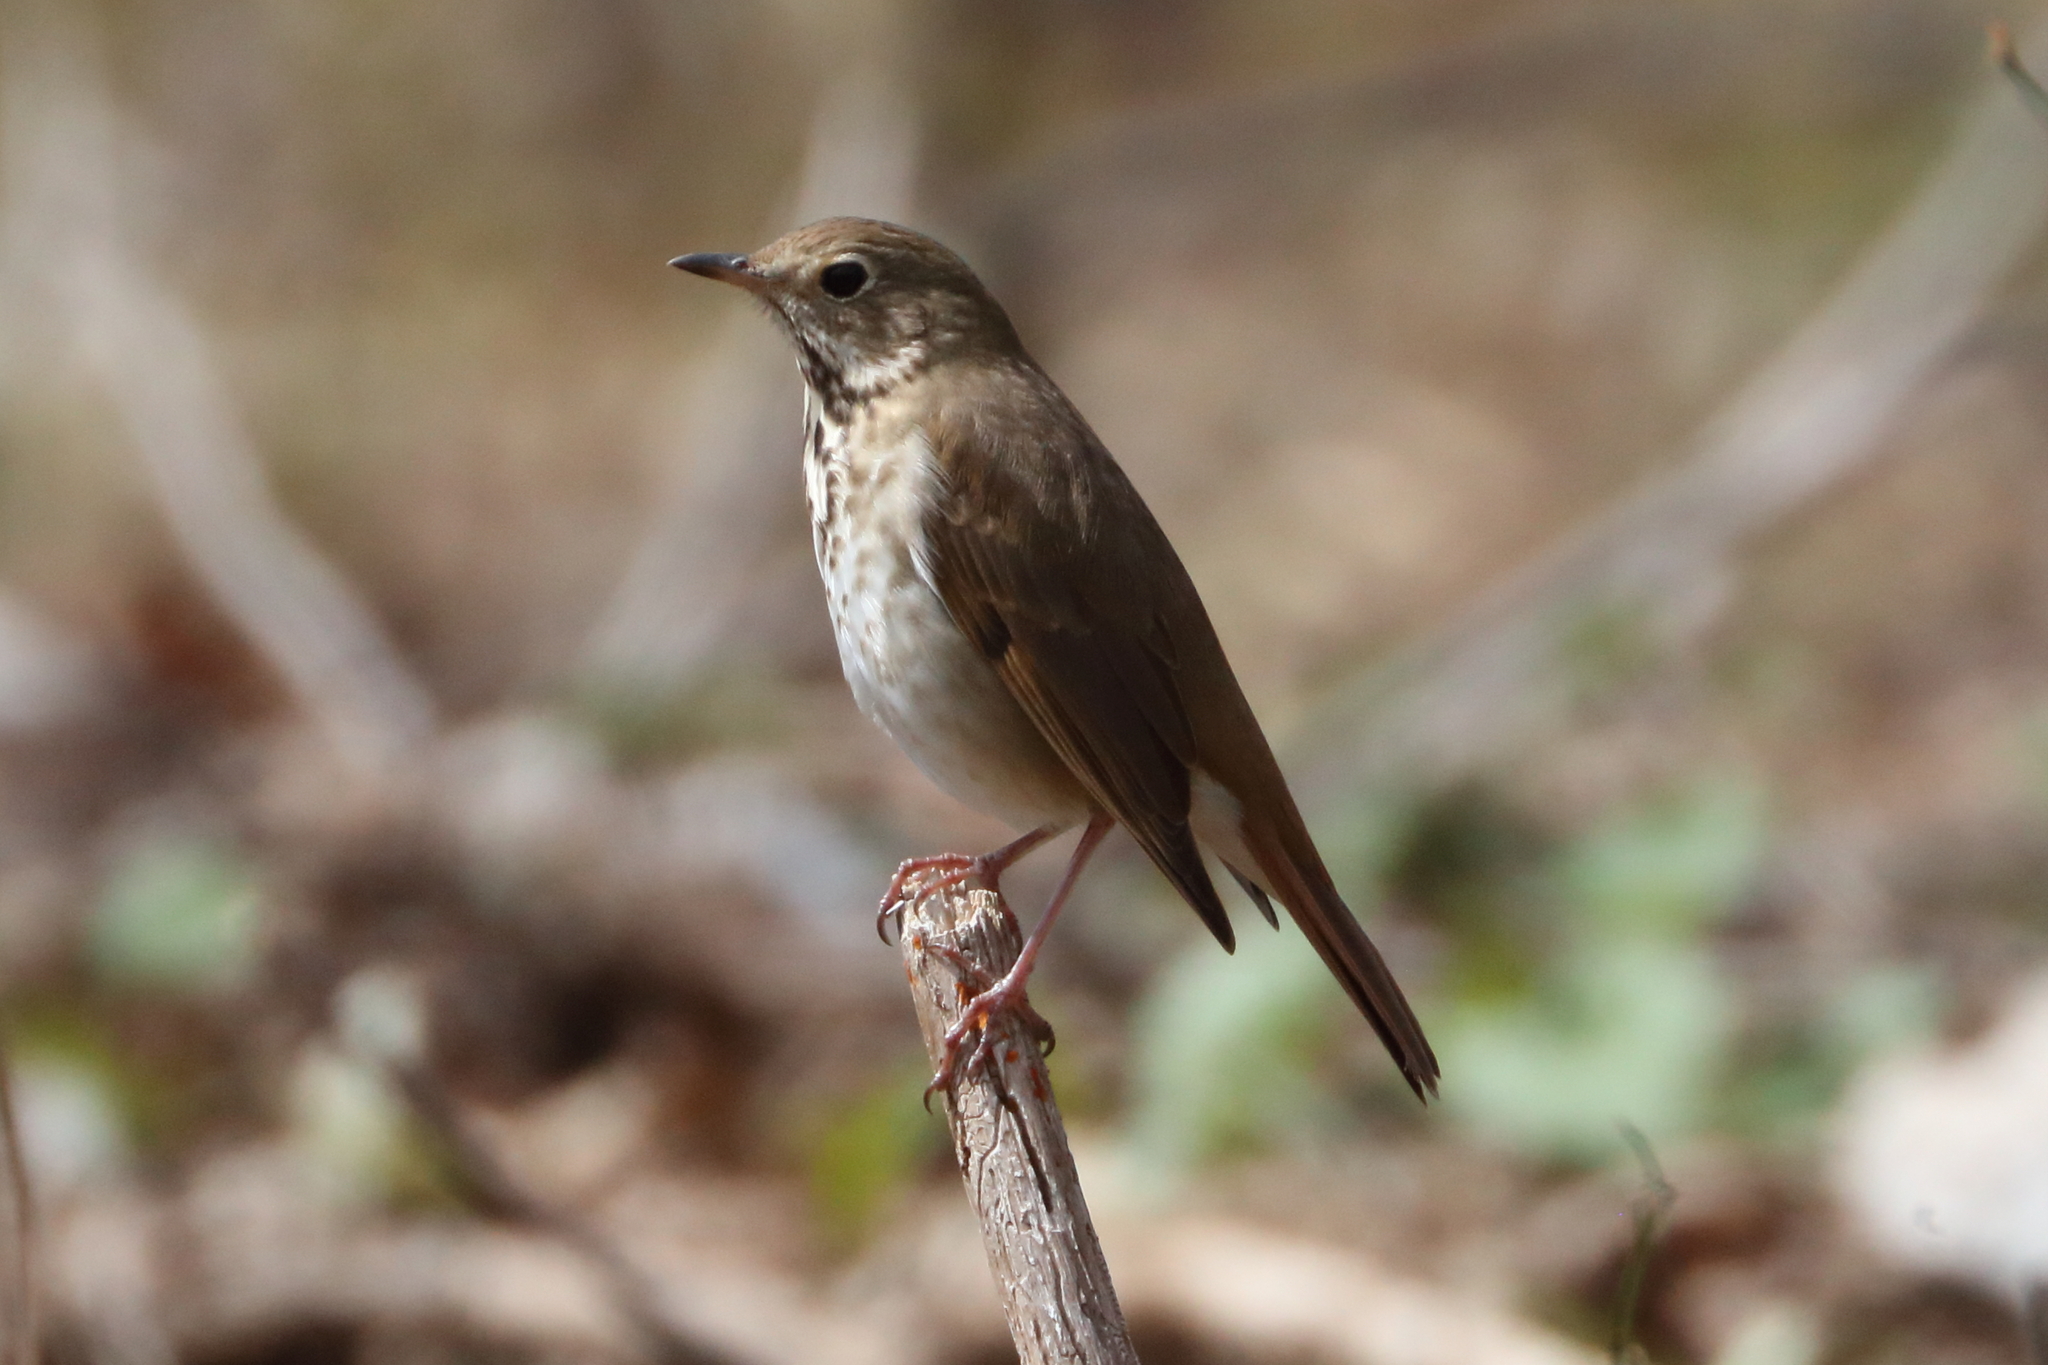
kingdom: Animalia
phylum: Chordata
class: Aves
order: Passeriformes
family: Turdidae
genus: Catharus
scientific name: Catharus guttatus
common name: Hermit thrush
